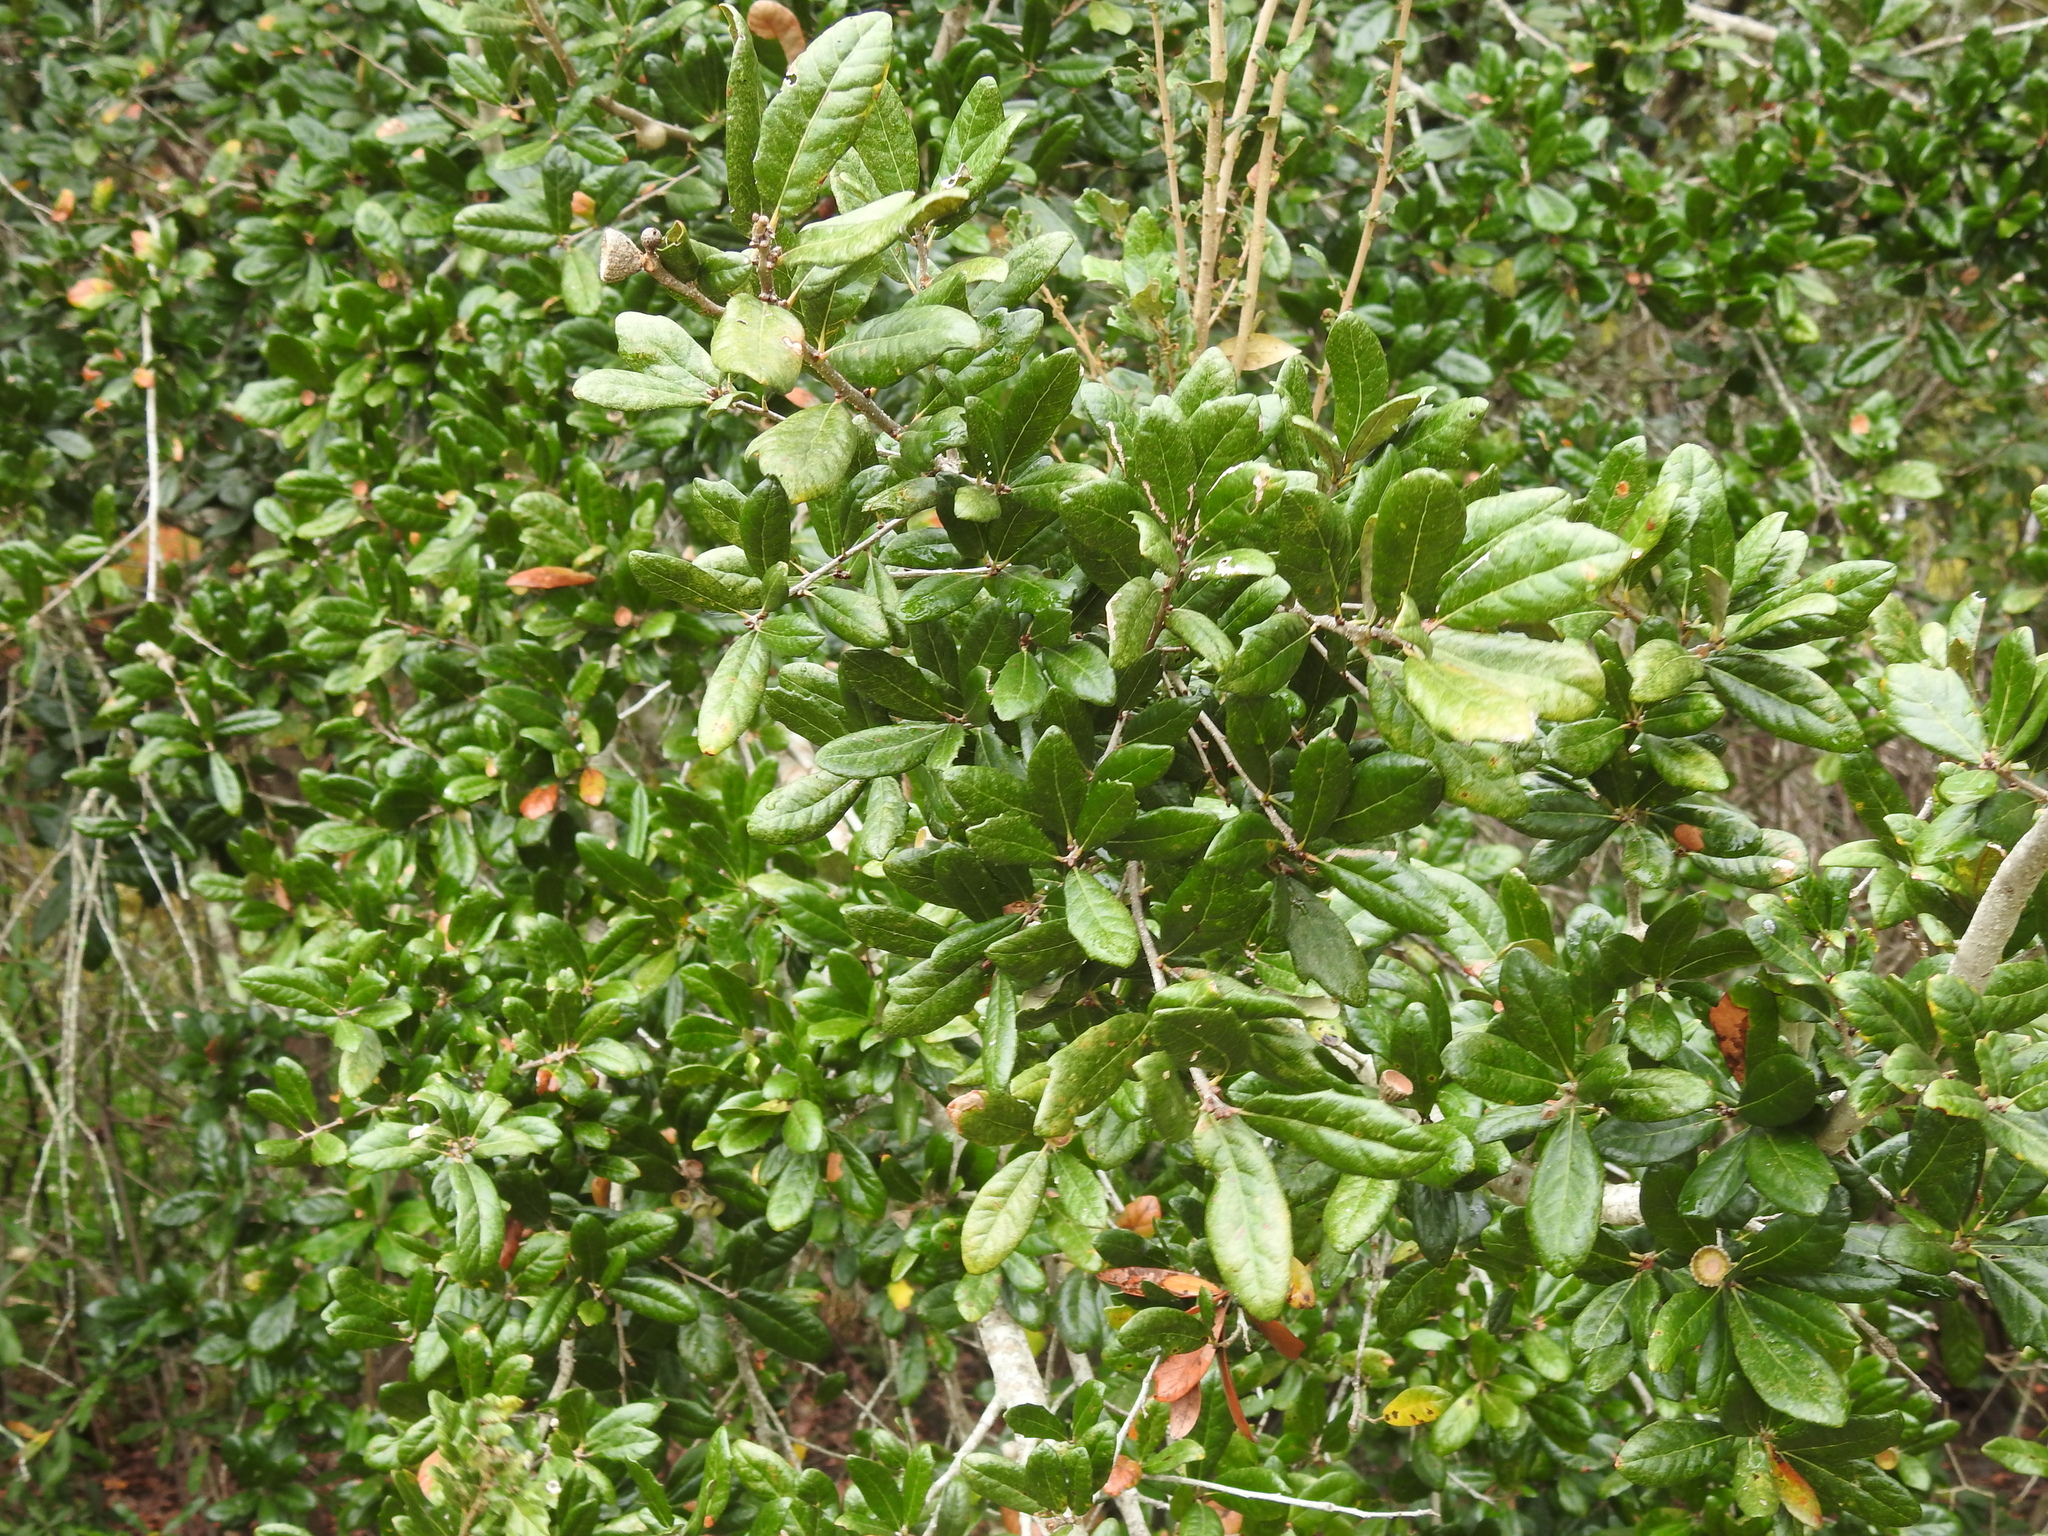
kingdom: Plantae
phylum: Tracheophyta
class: Magnoliopsida
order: Fagales
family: Fagaceae
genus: Quercus
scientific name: Quercus virginiana
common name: Southern live oak
